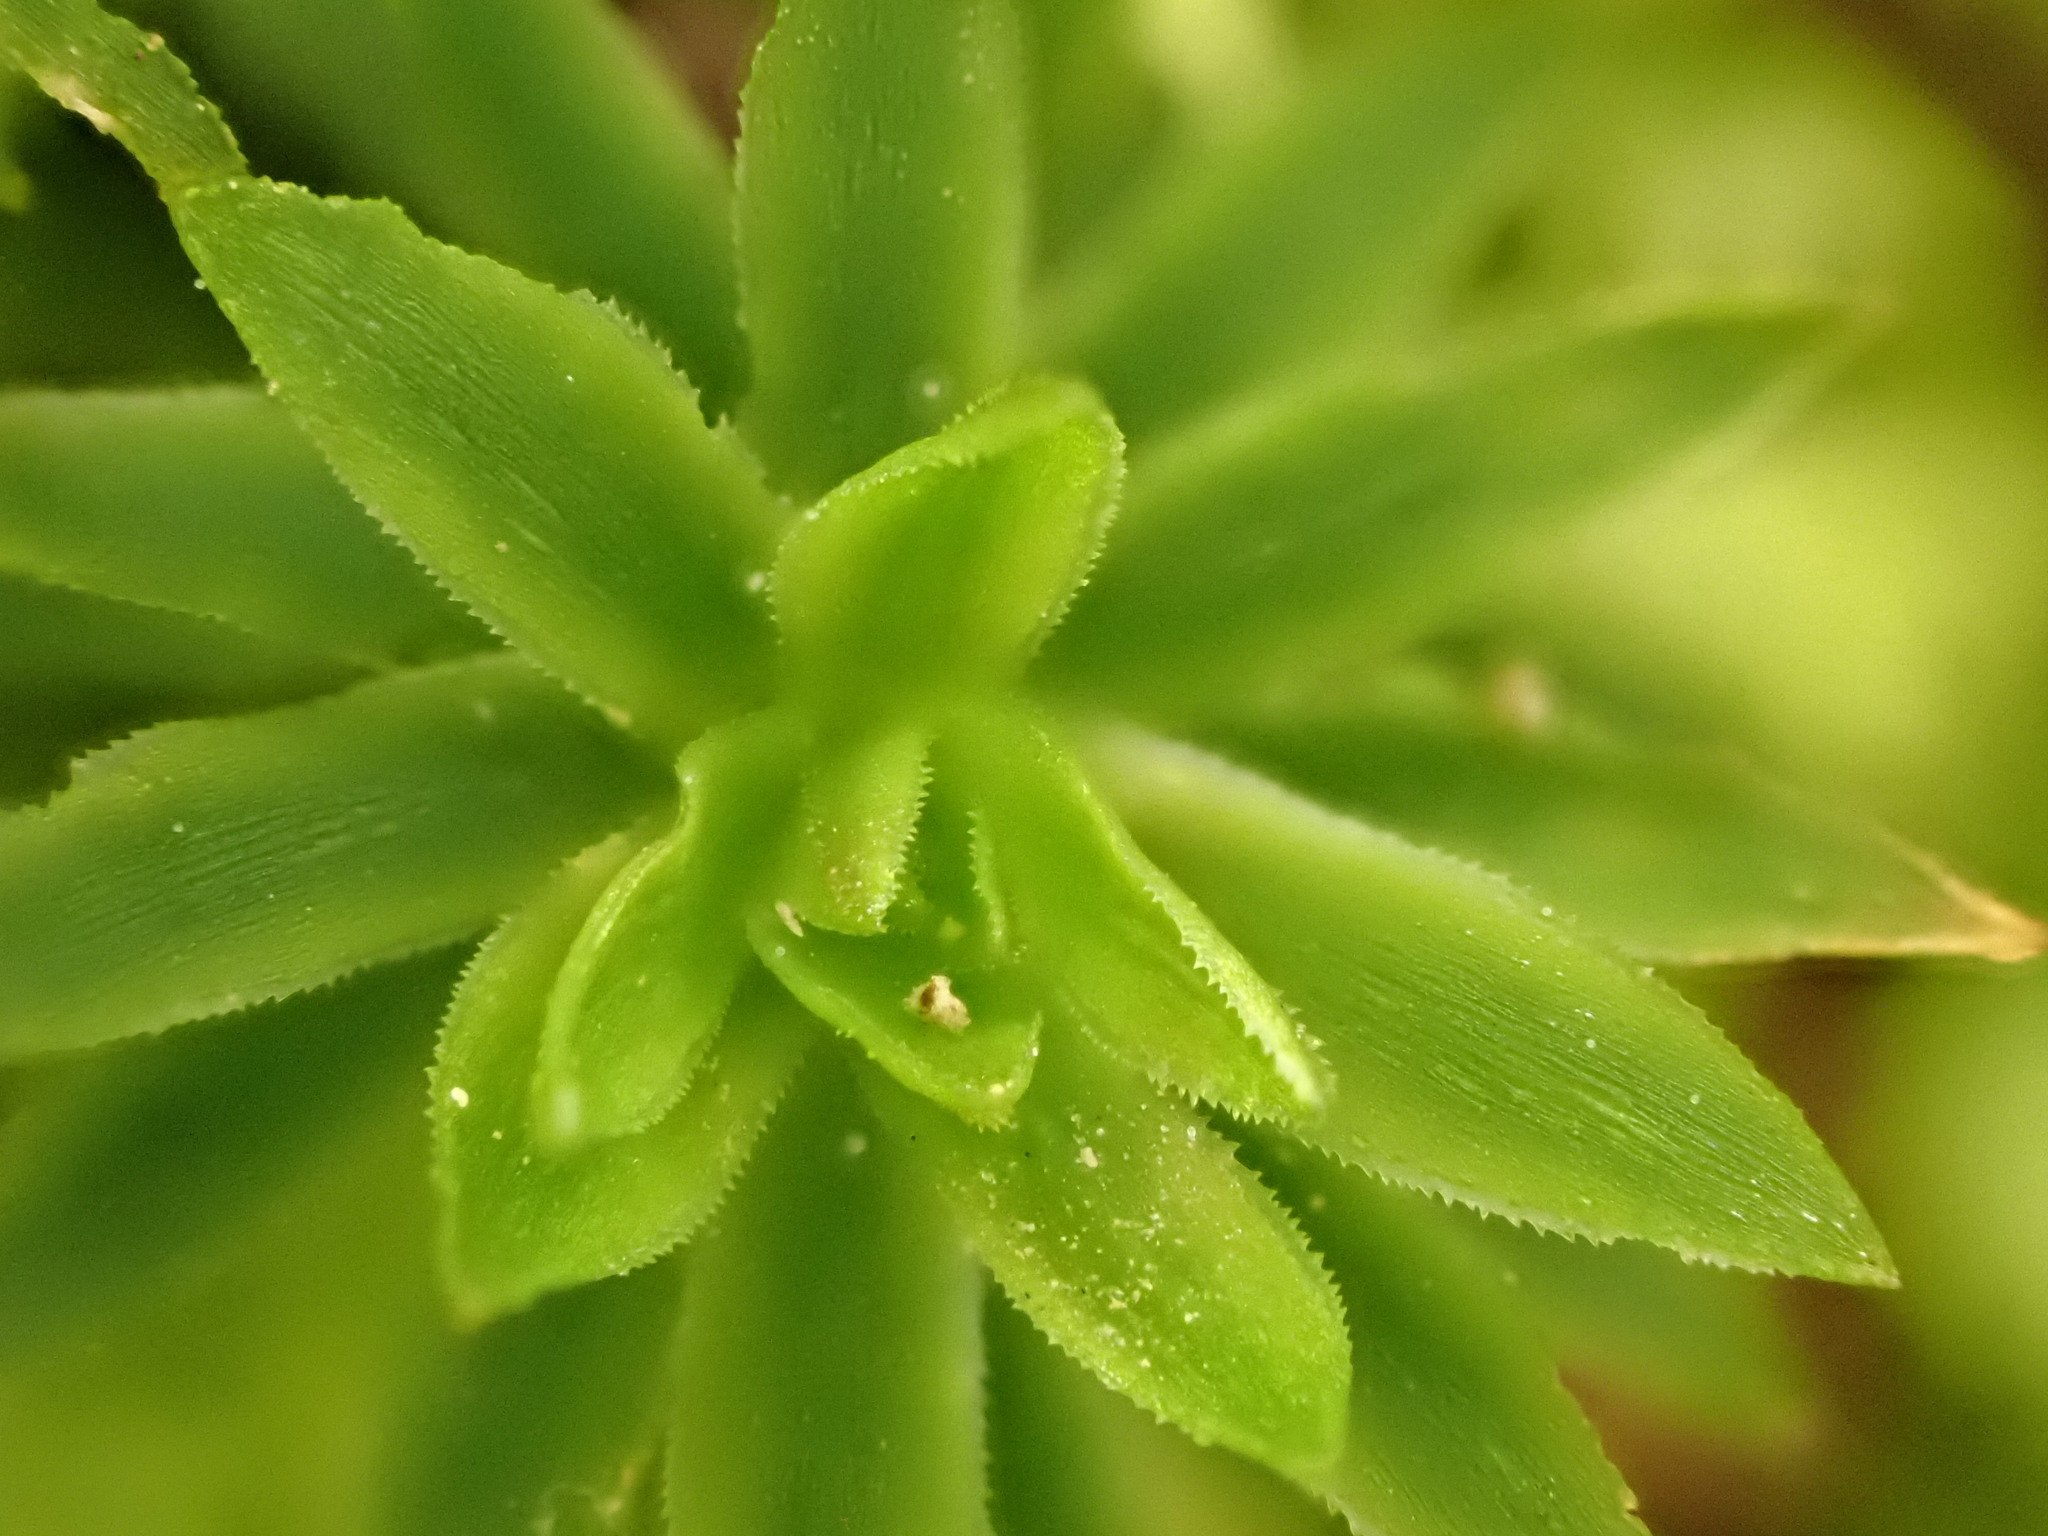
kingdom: Plantae
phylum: Bryophyta
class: Polytrichopsida
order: Polytrichales
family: Polytrichaceae
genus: Pogonatum
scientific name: Pogonatum subulatum
